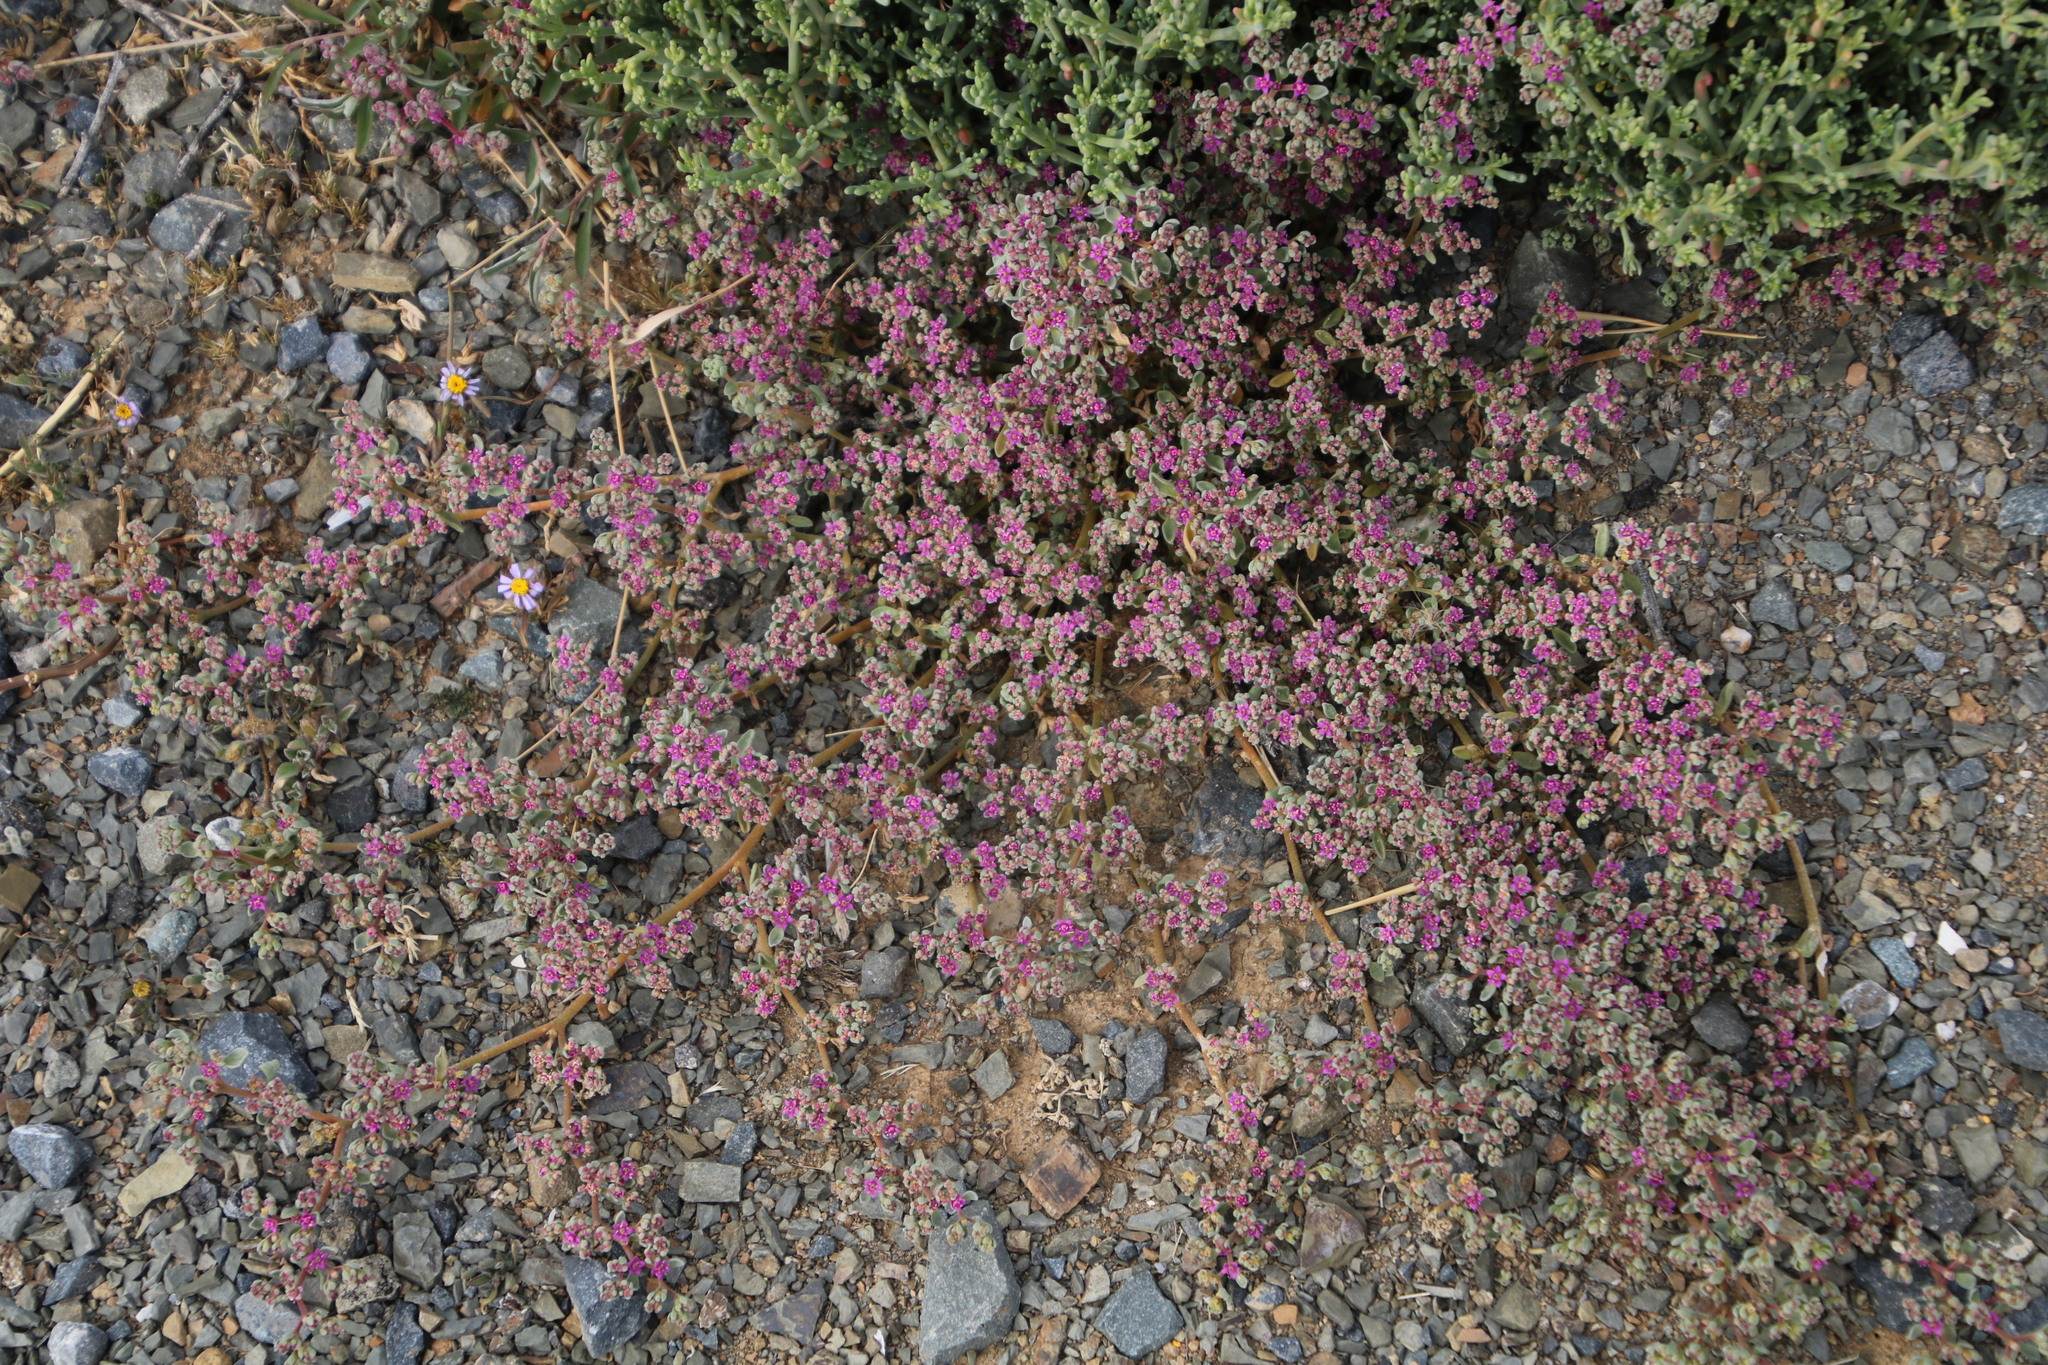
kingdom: Plantae
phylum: Tracheophyta
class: Magnoliopsida
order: Caryophyllales
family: Aizoaceae
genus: Aizoon
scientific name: Aizoon sarcophyllum
